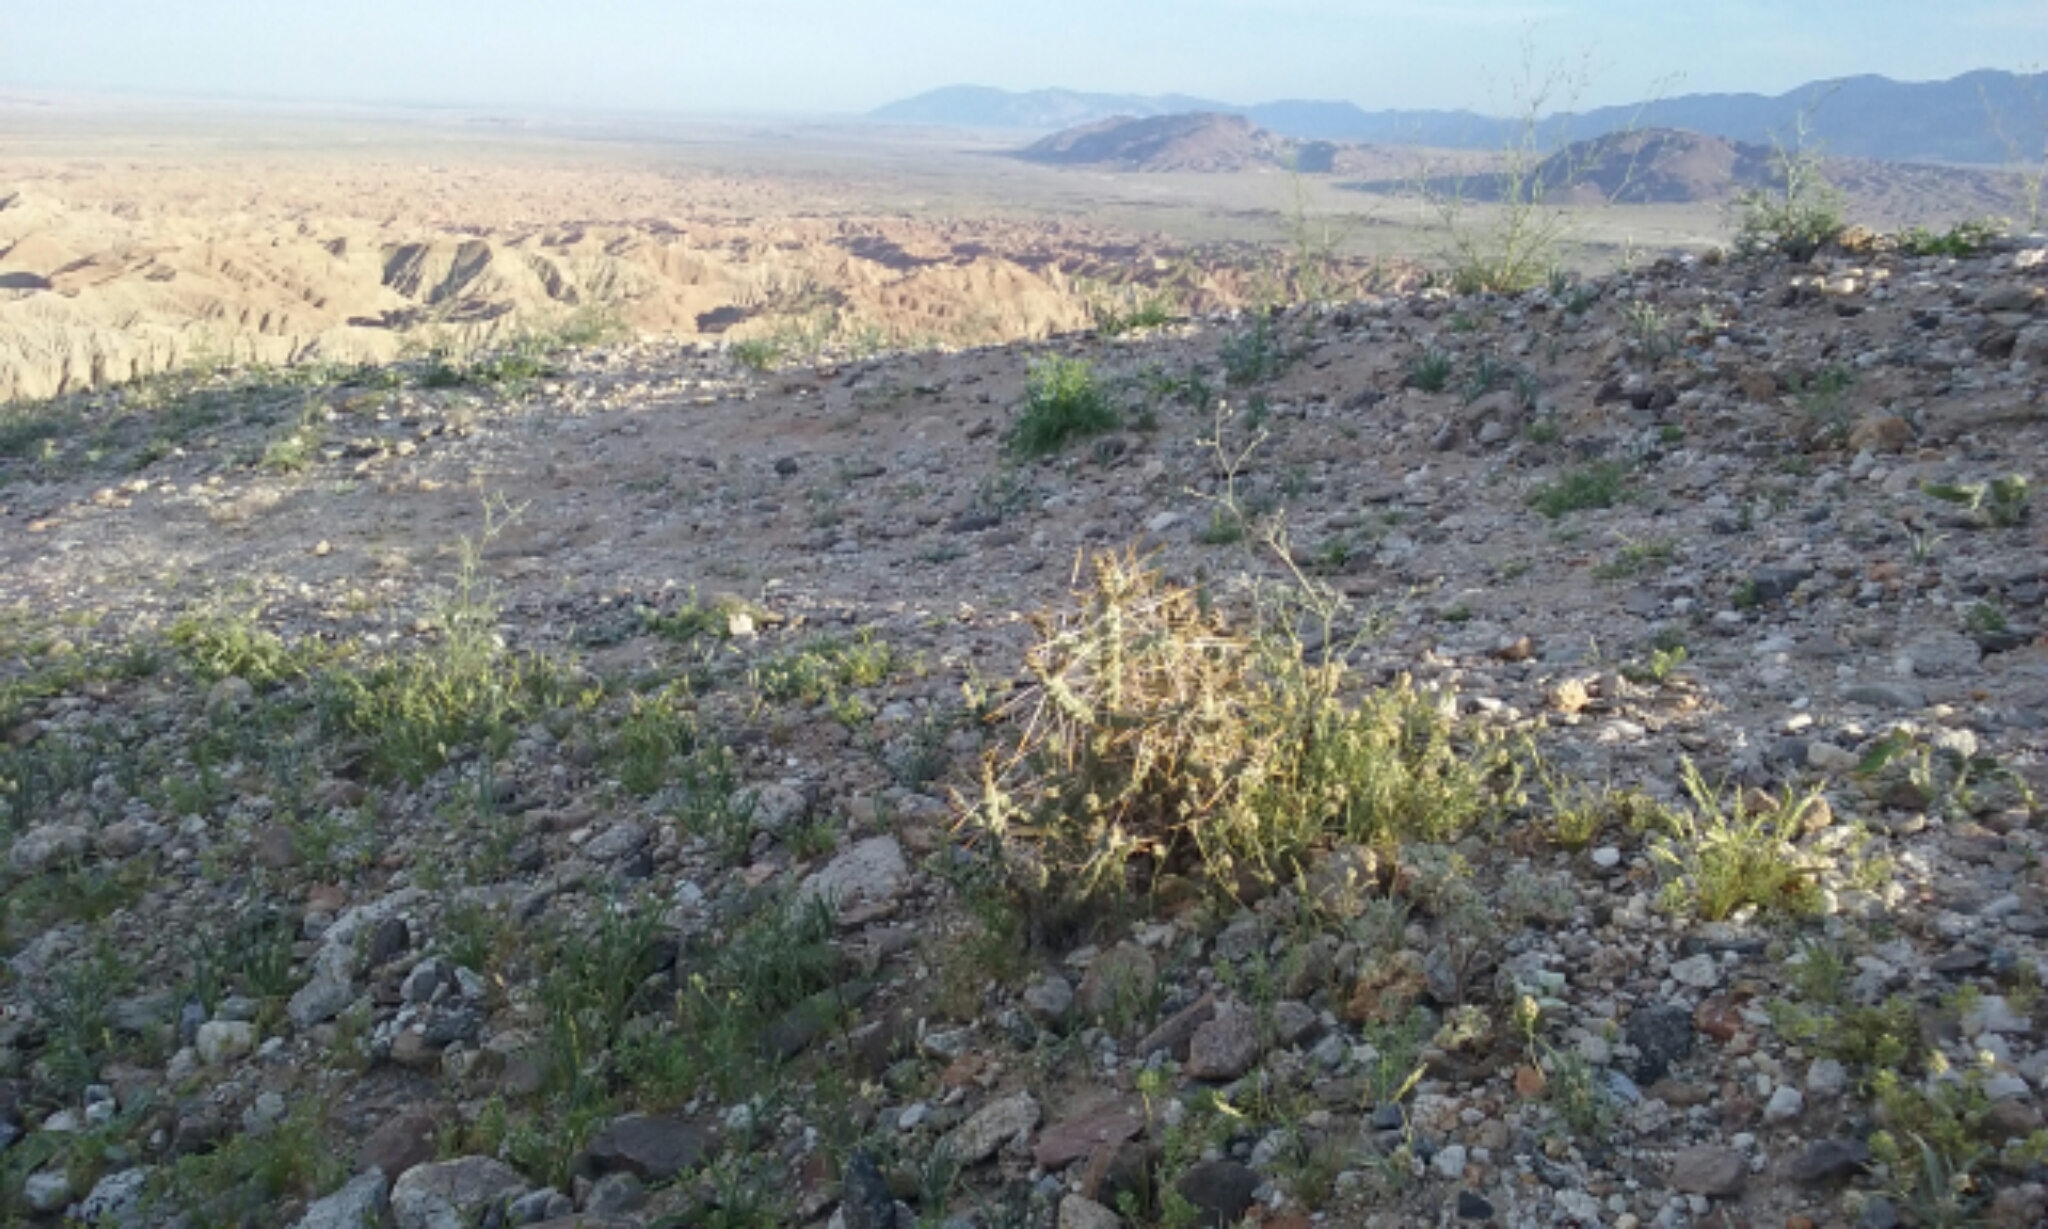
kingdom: Plantae
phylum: Tracheophyta
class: Magnoliopsida
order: Caryophyllales
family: Cactaceae
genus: Cylindropuntia
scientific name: Cylindropuntia ramosissima
